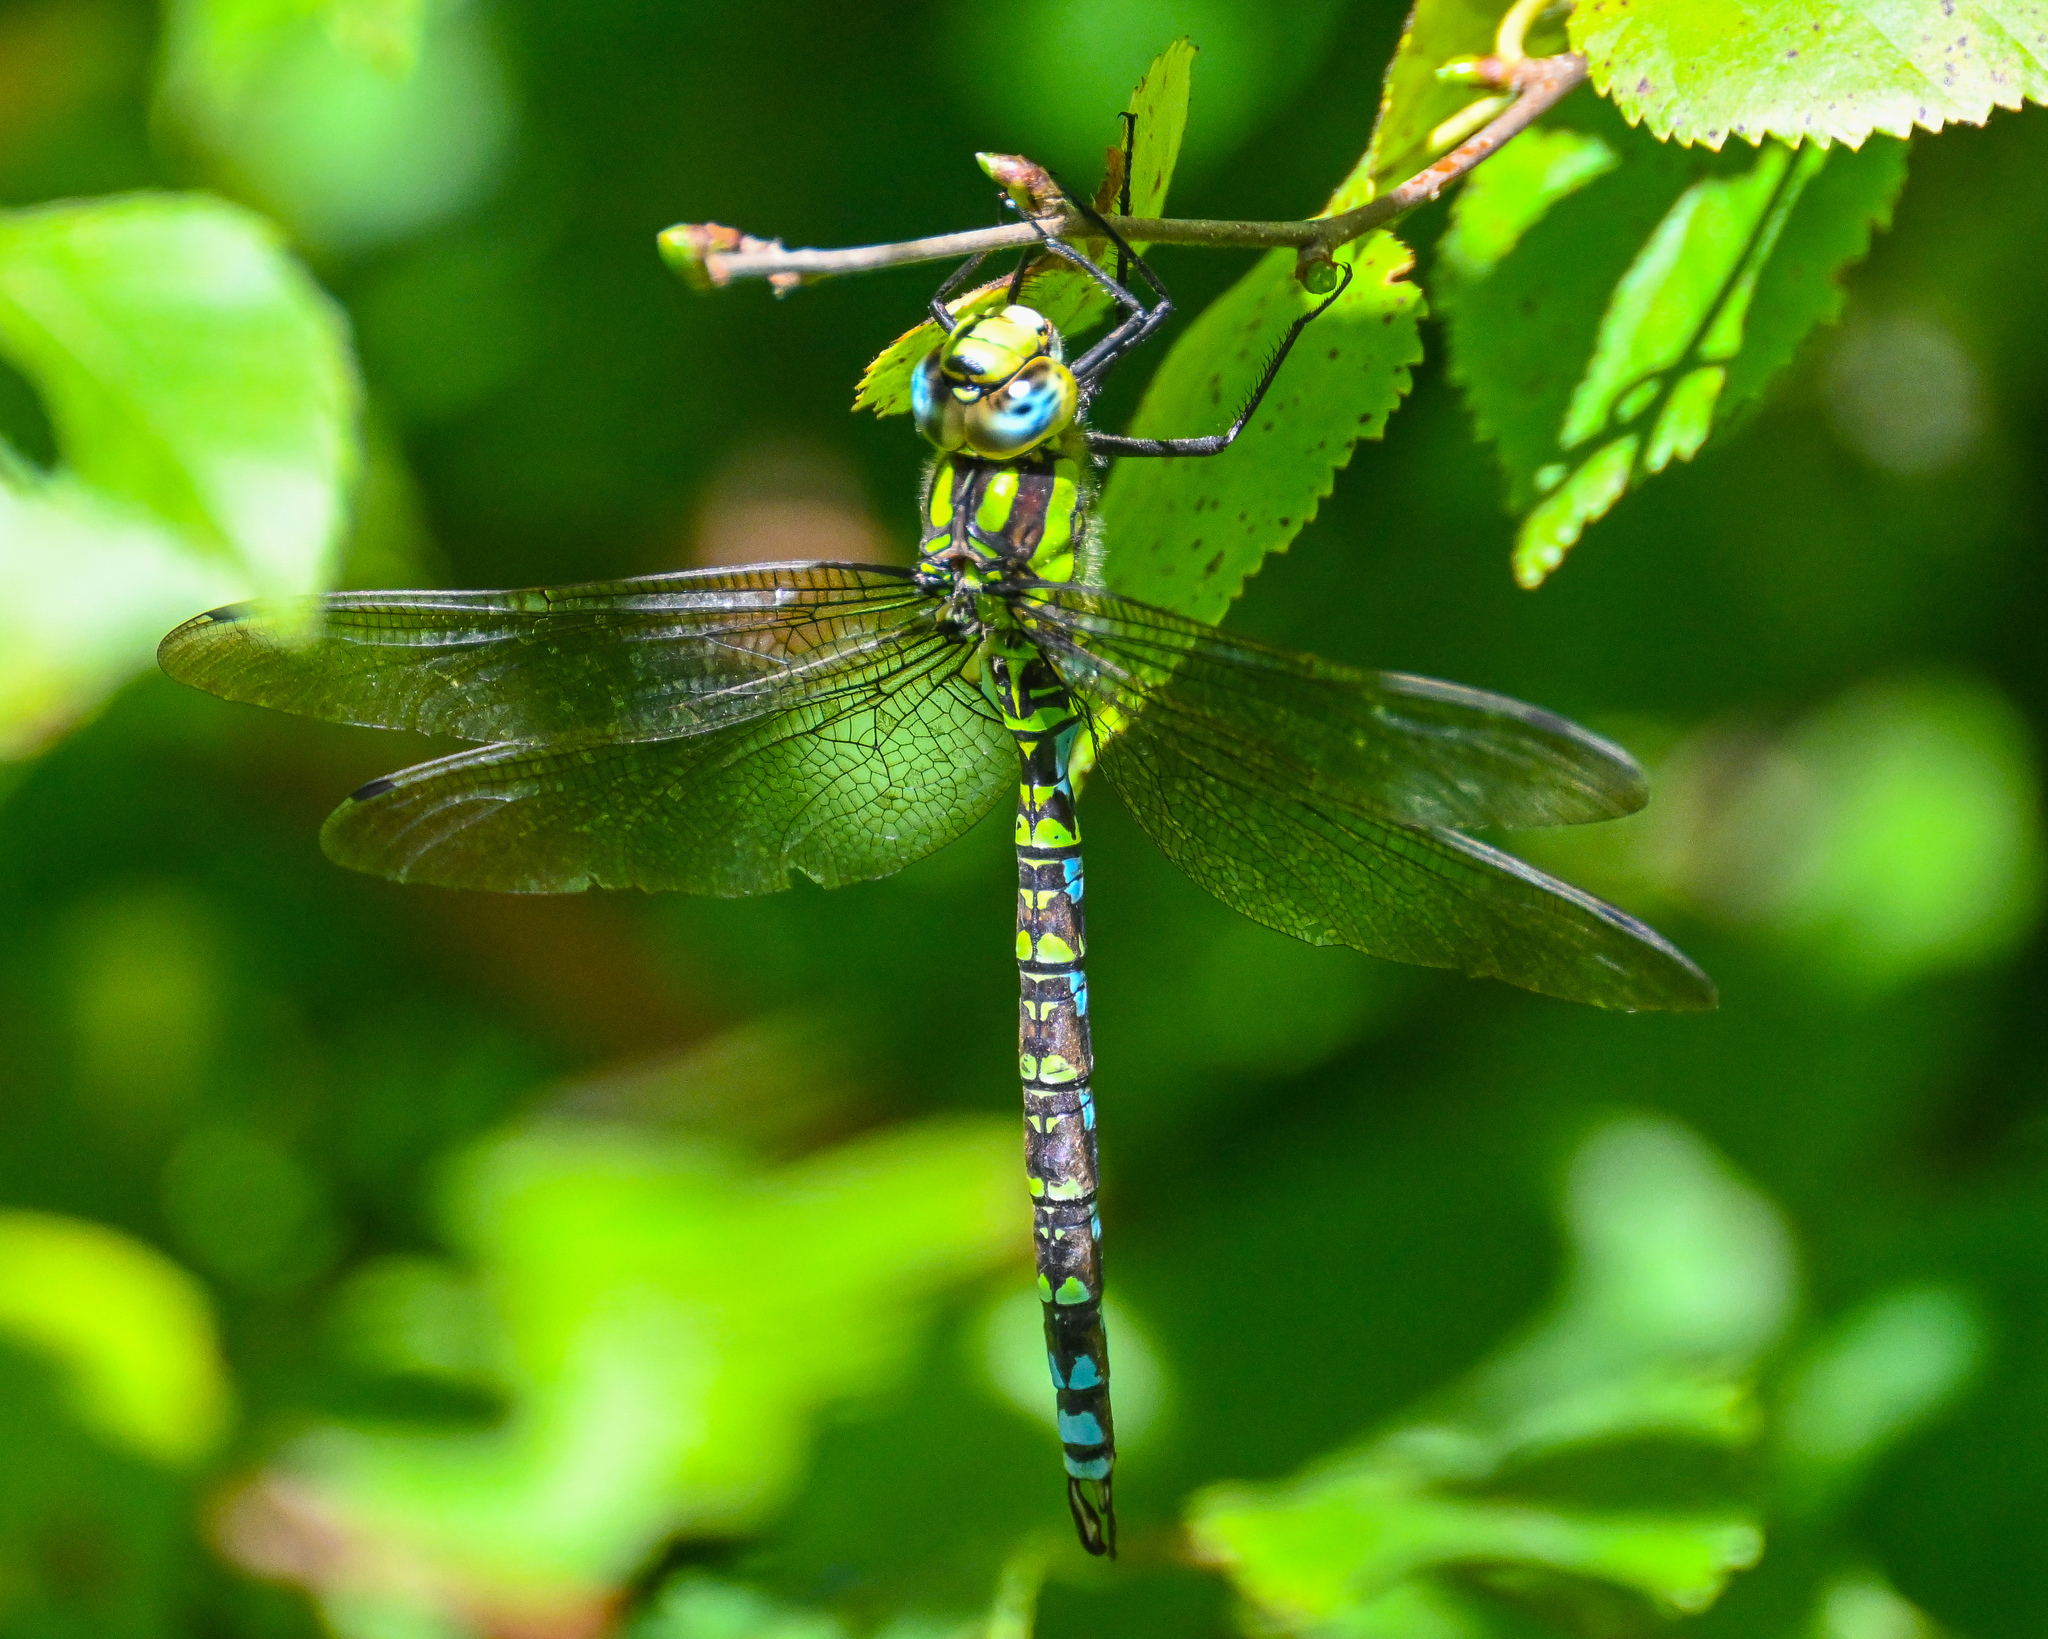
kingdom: Animalia
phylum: Arthropoda
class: Insecta
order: Odonata
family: Aeshnidae
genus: Aeshna
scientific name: Aeshna cyanea
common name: Southern hawker
